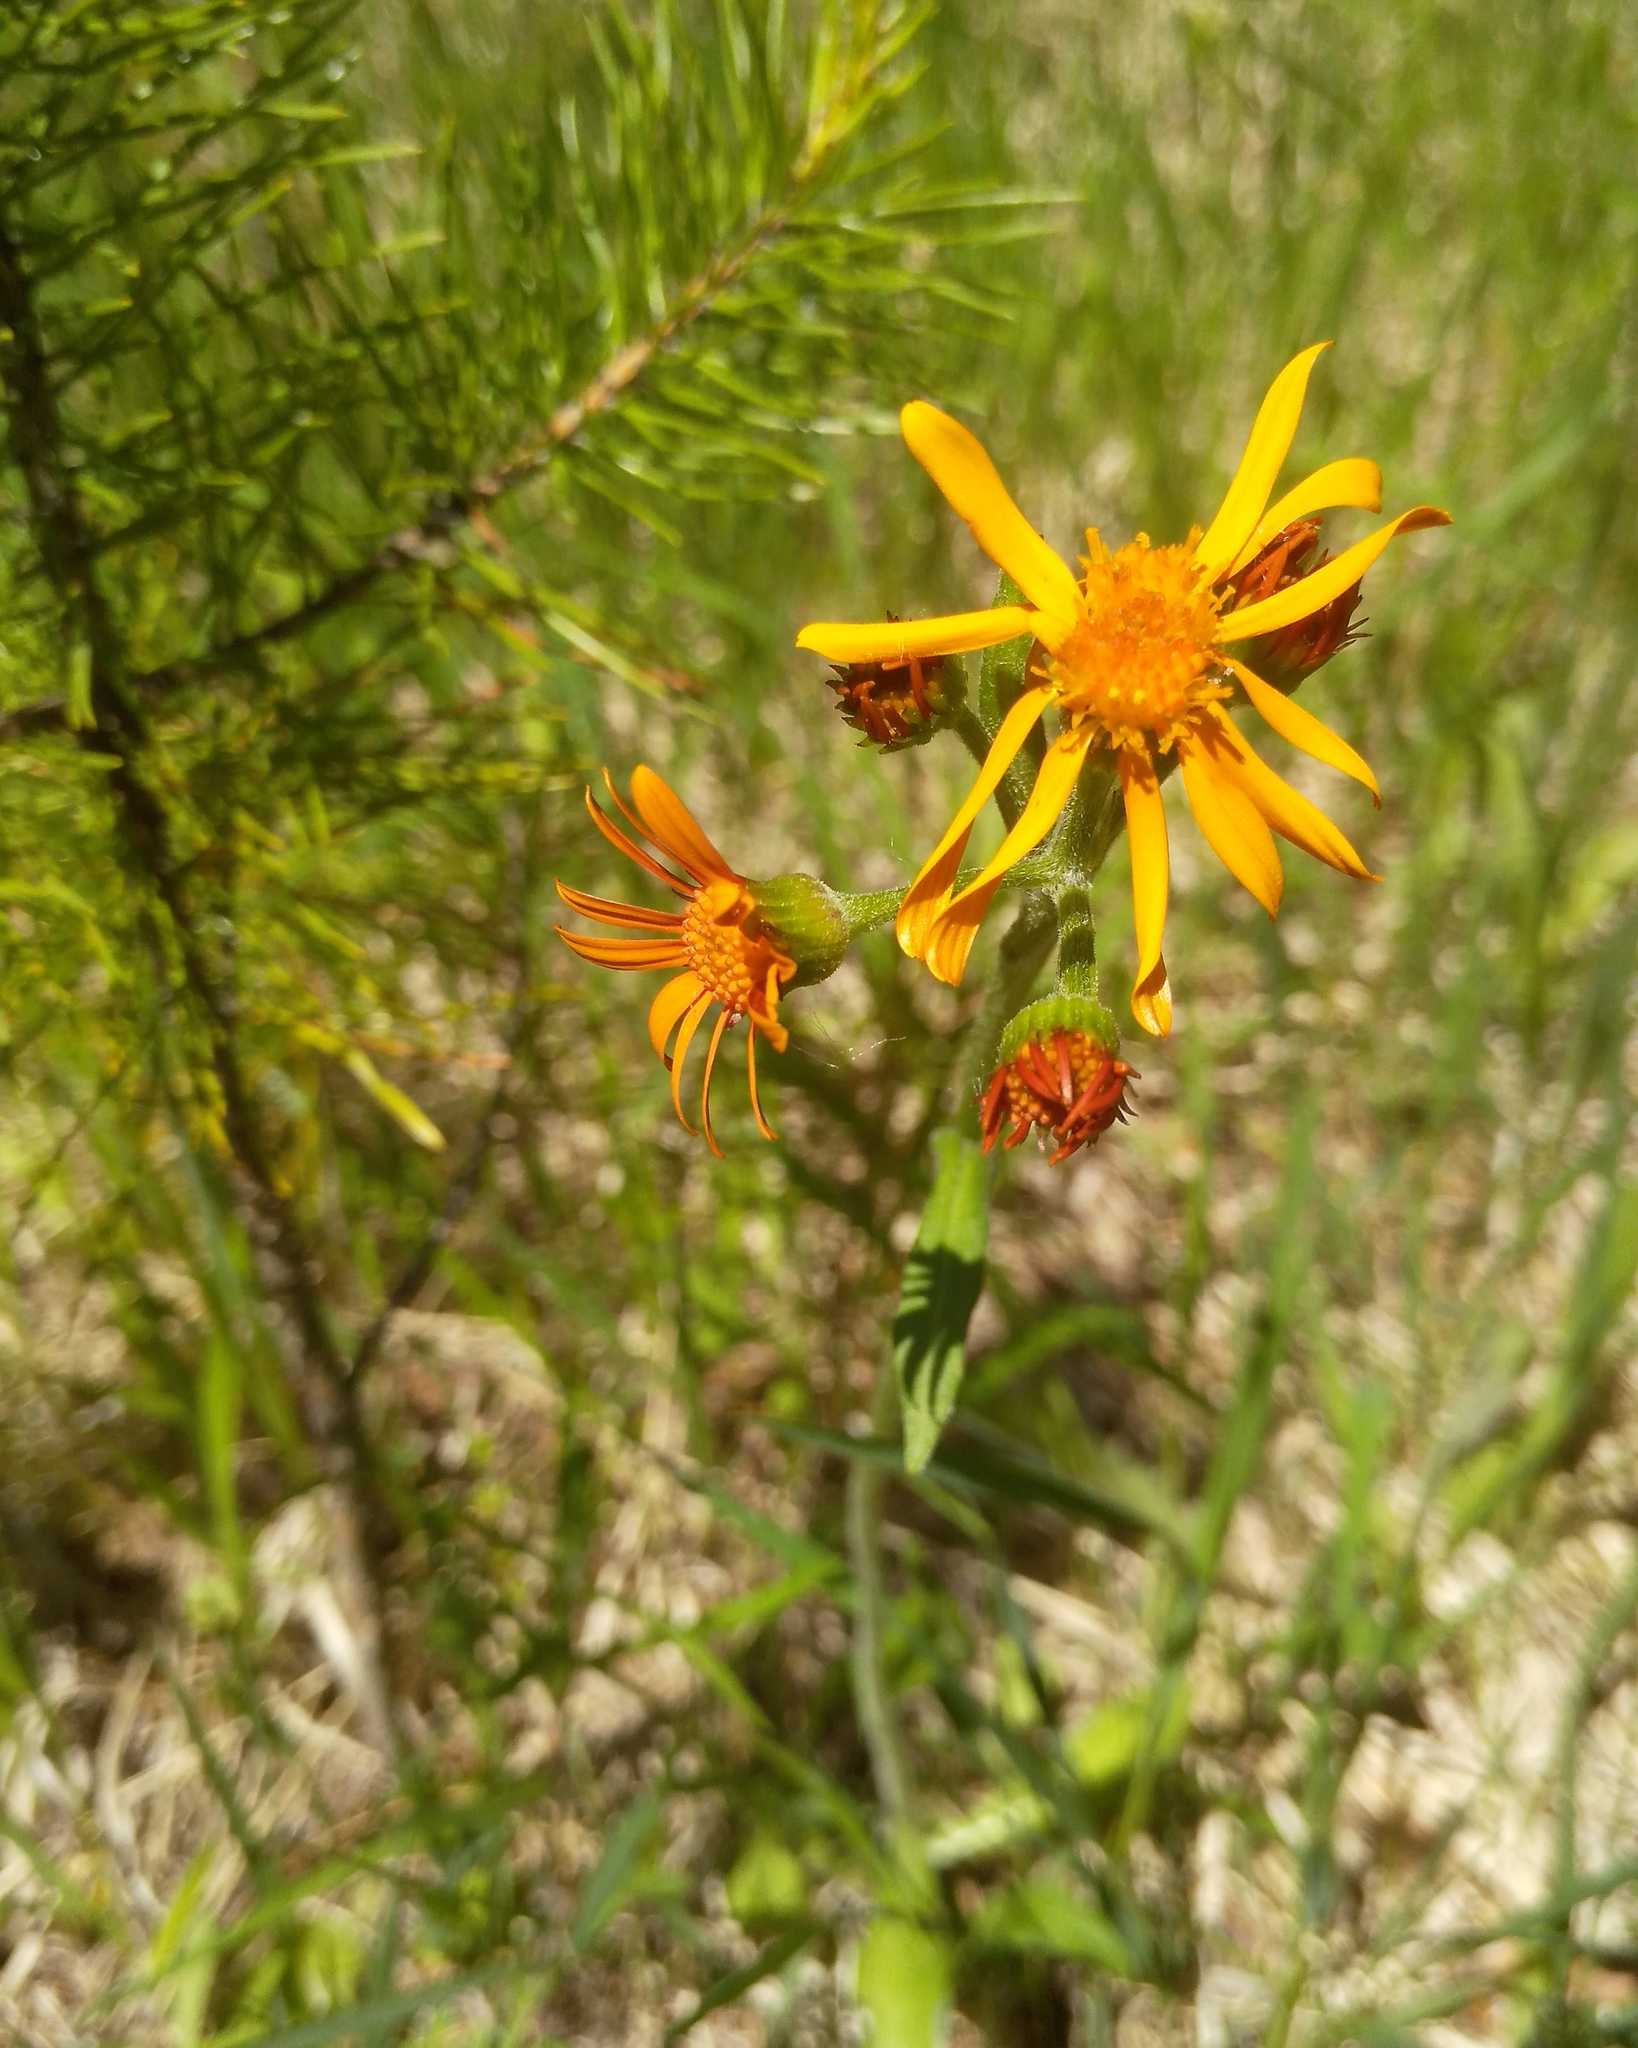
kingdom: Plantae
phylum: Tracheophyta
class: Magnoliopsida
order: Asterales
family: Asteraceae
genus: Tephroseris
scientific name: Tephroseris porphyrantha
